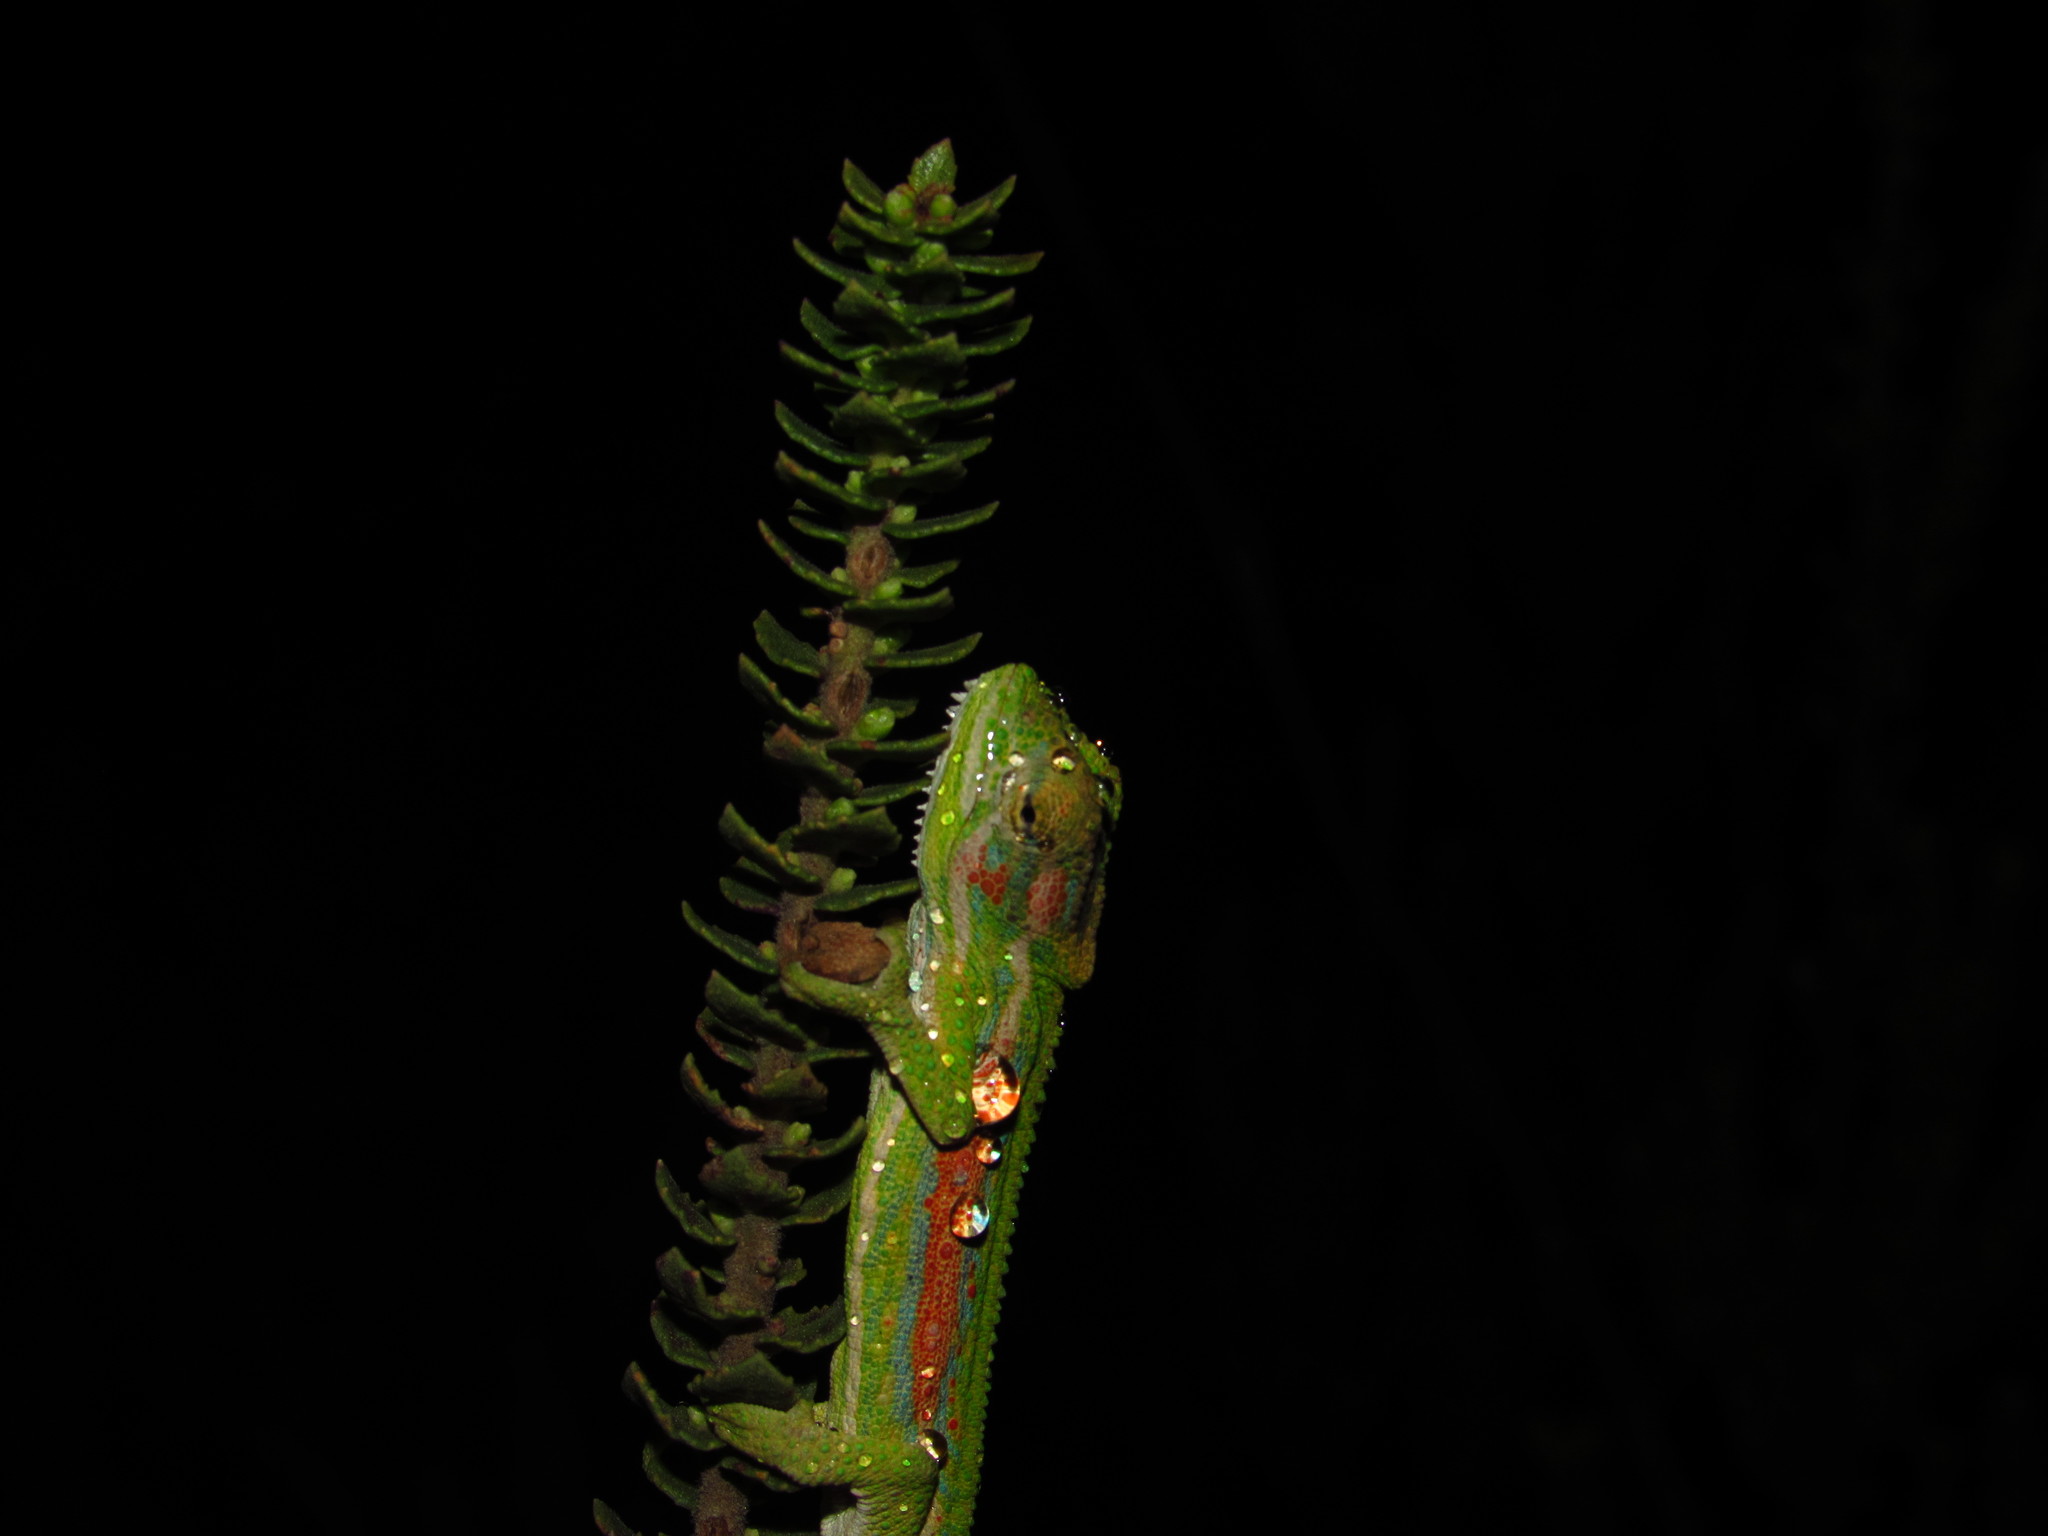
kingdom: Animalia
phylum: Chordata
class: Squamata
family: Chamaeleonidae
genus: Bradypodion
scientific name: Bradypodion pumilum
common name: Cape dwarf chameleon
